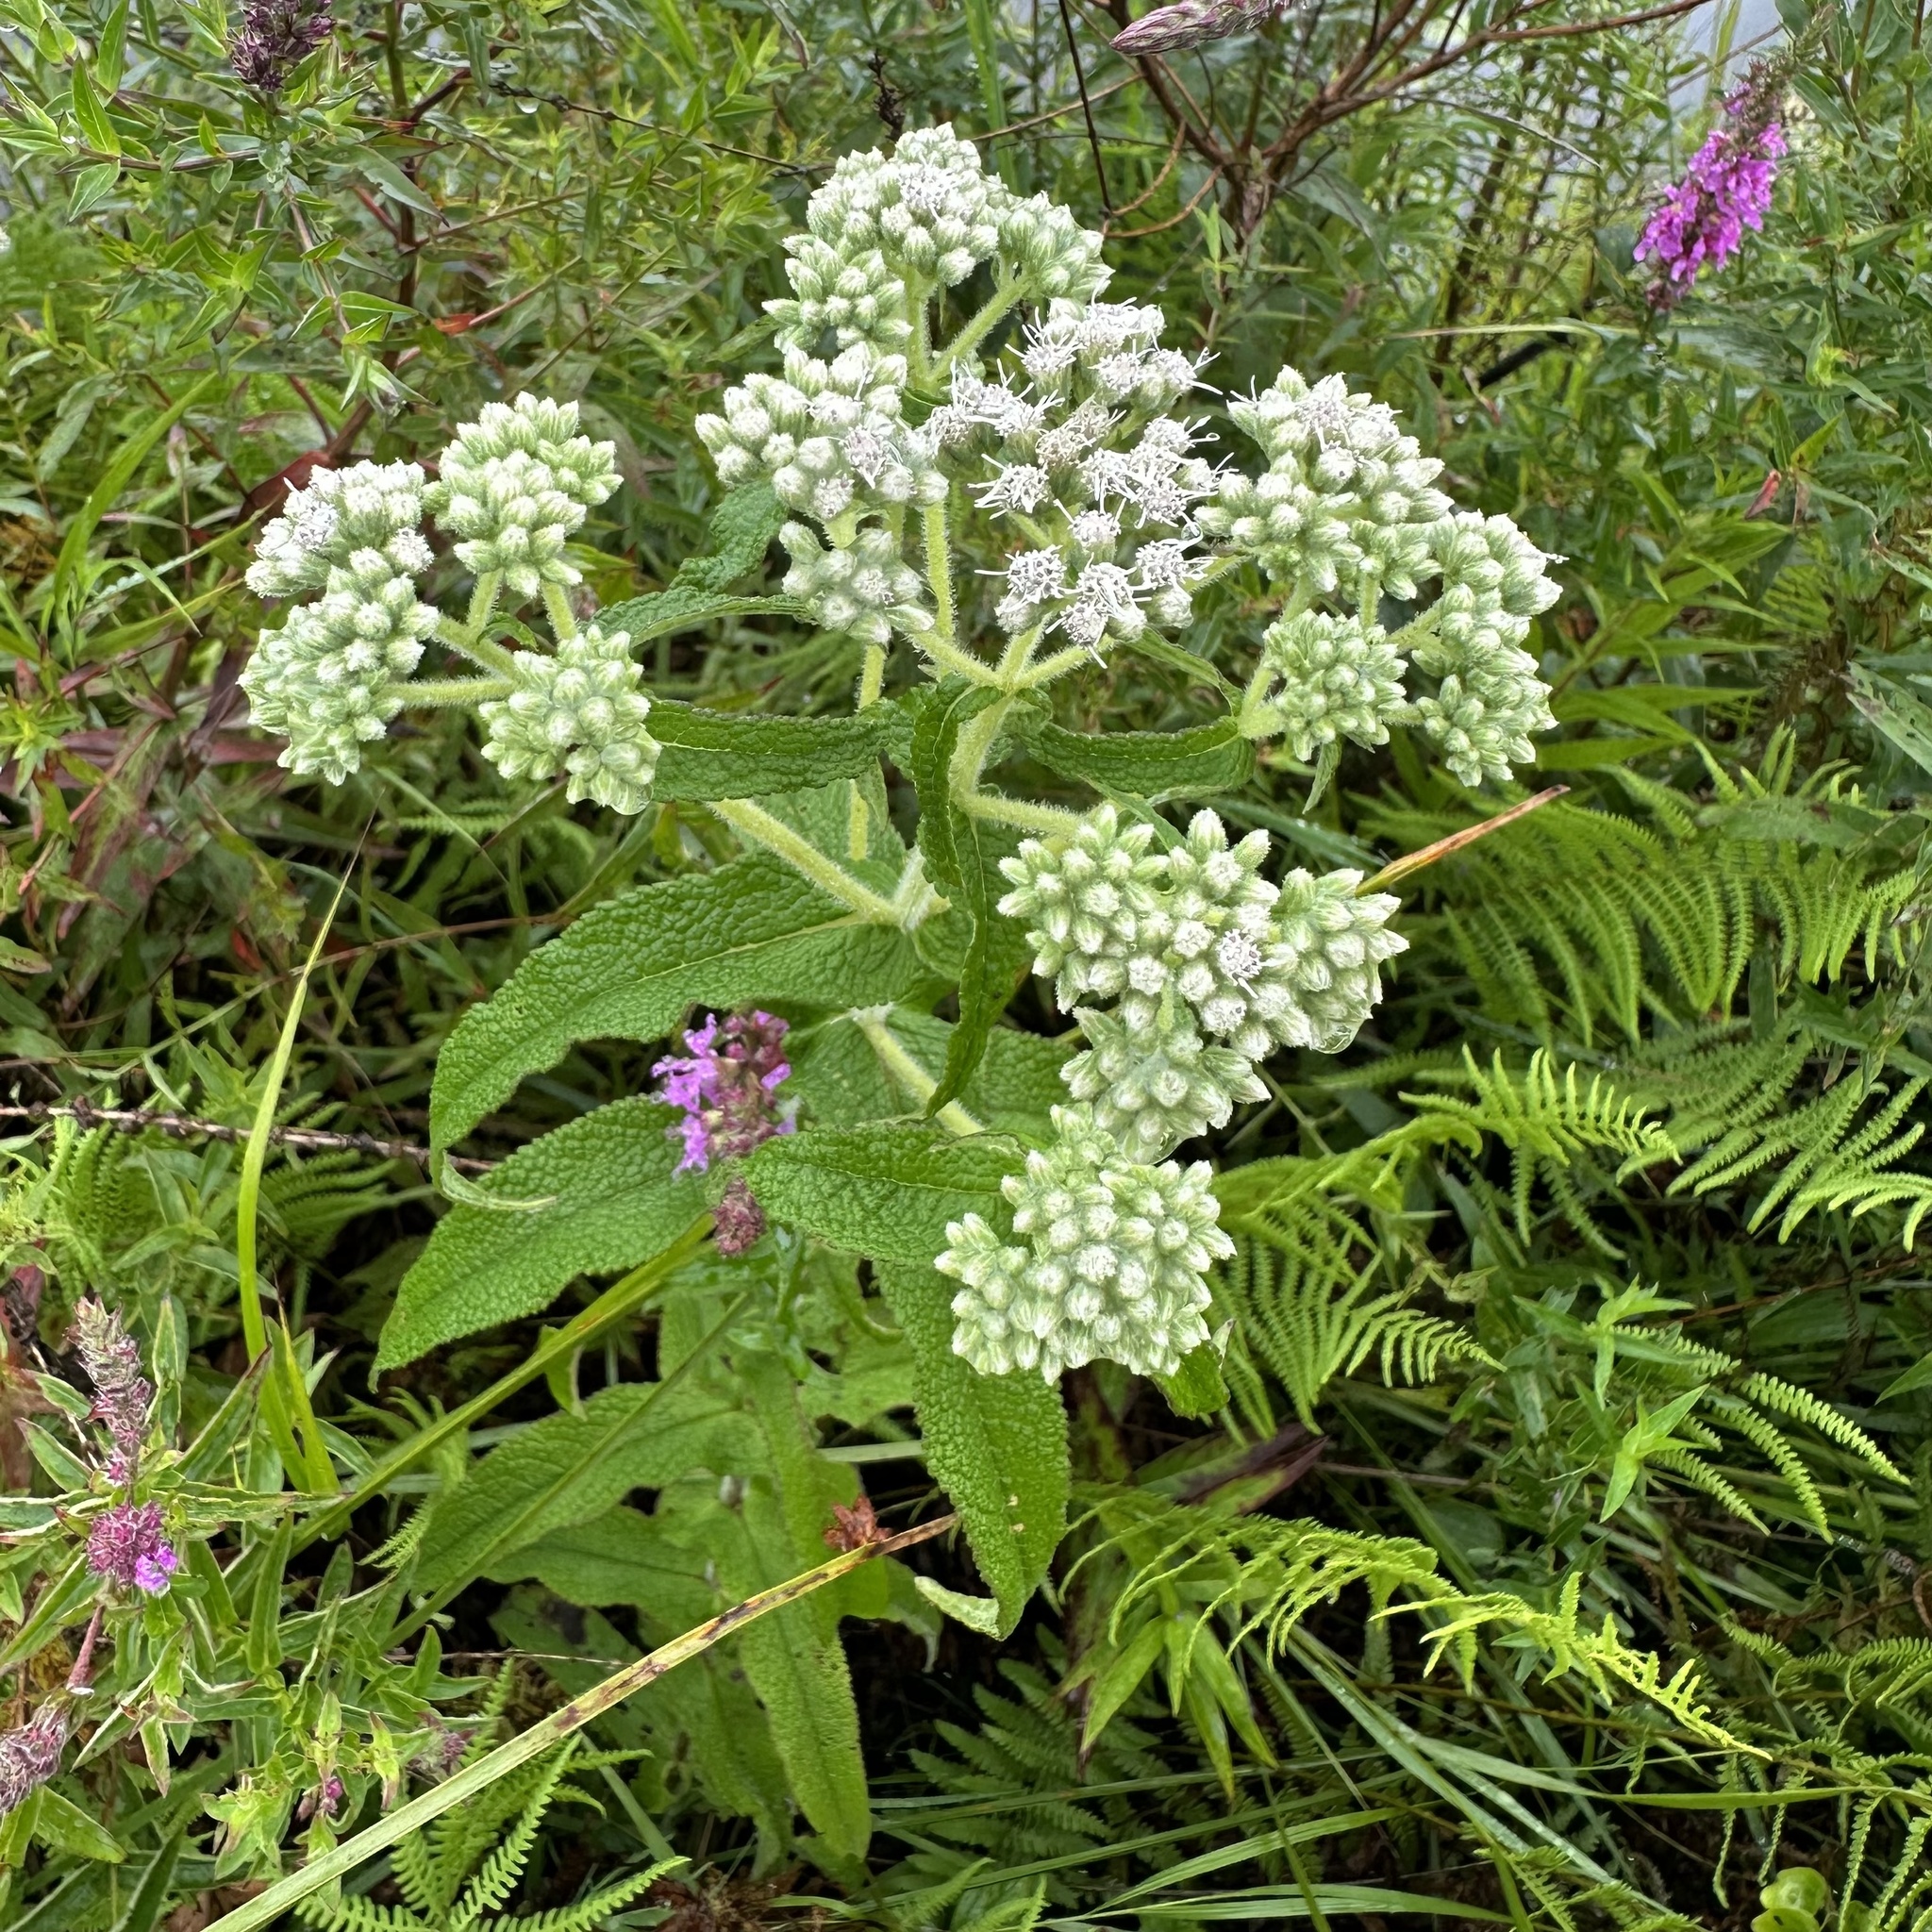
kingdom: Plantae
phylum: Tracheophyta
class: Magnoliopsida
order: Asterales
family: Asteraceae
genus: Eupatorium
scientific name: Eupatorium perfoliatum
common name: Boneset
